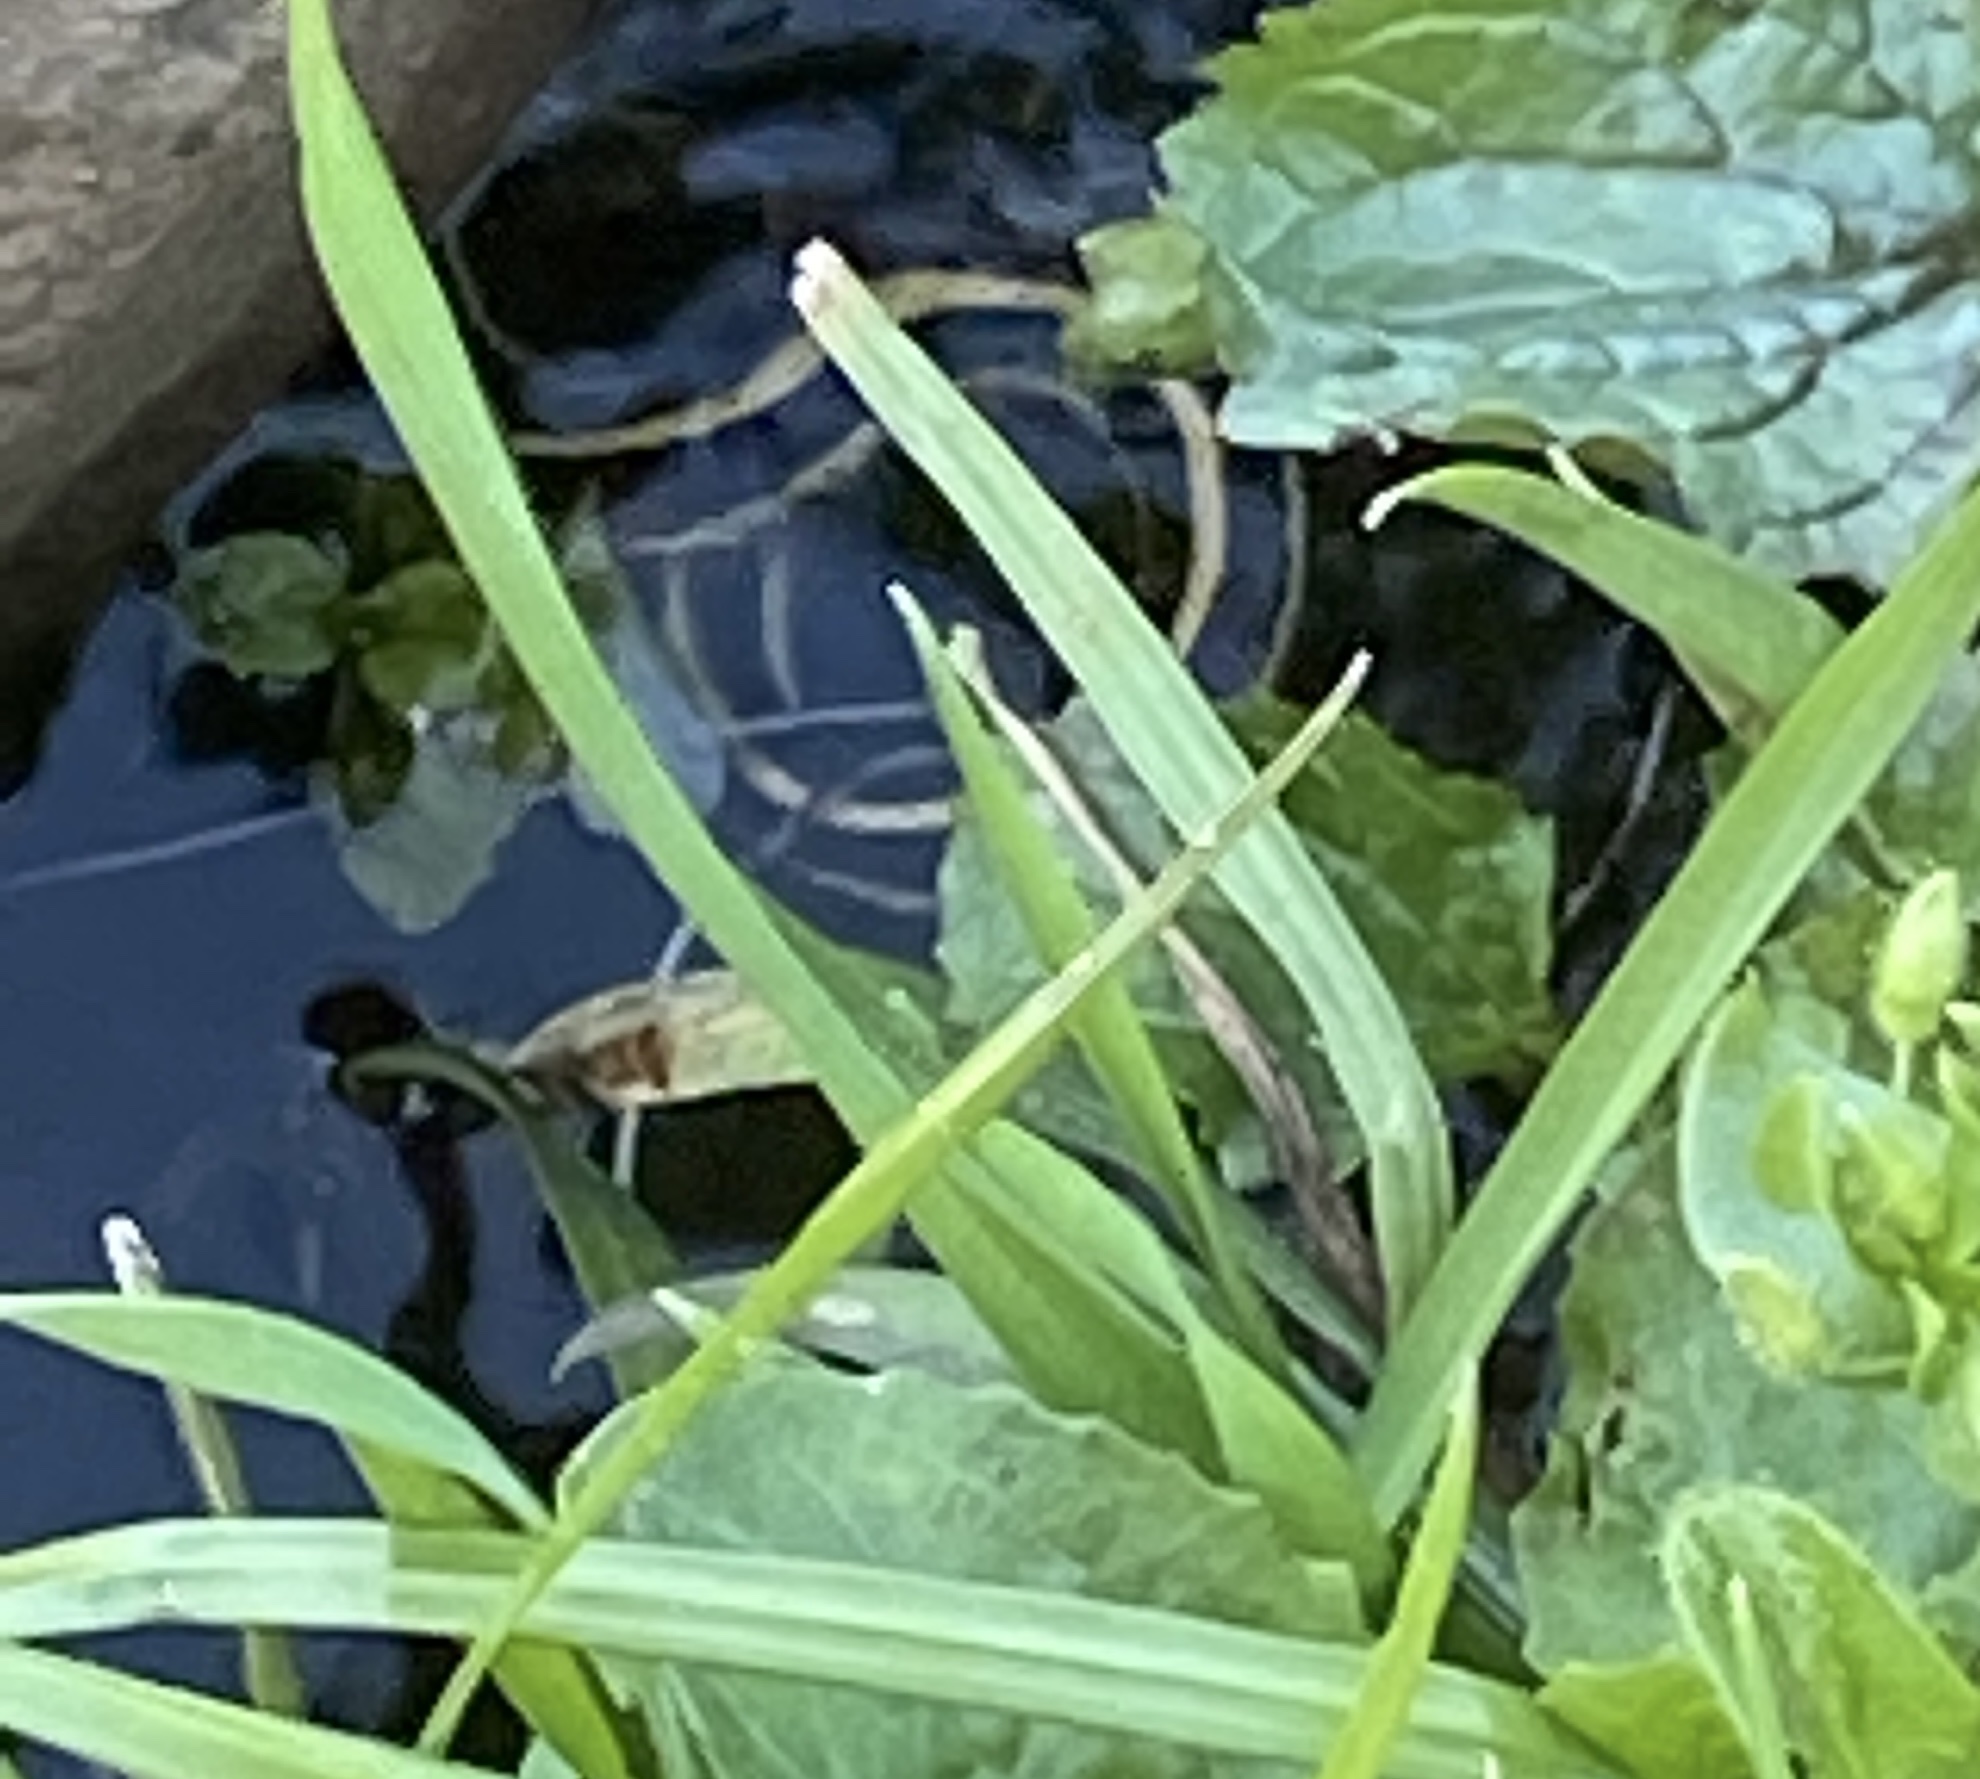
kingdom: Animalia
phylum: Chordata
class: Squamata
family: Colubridae
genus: Thamnophis
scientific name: Thamnophis elegans
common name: Western terrestrial garter snake
